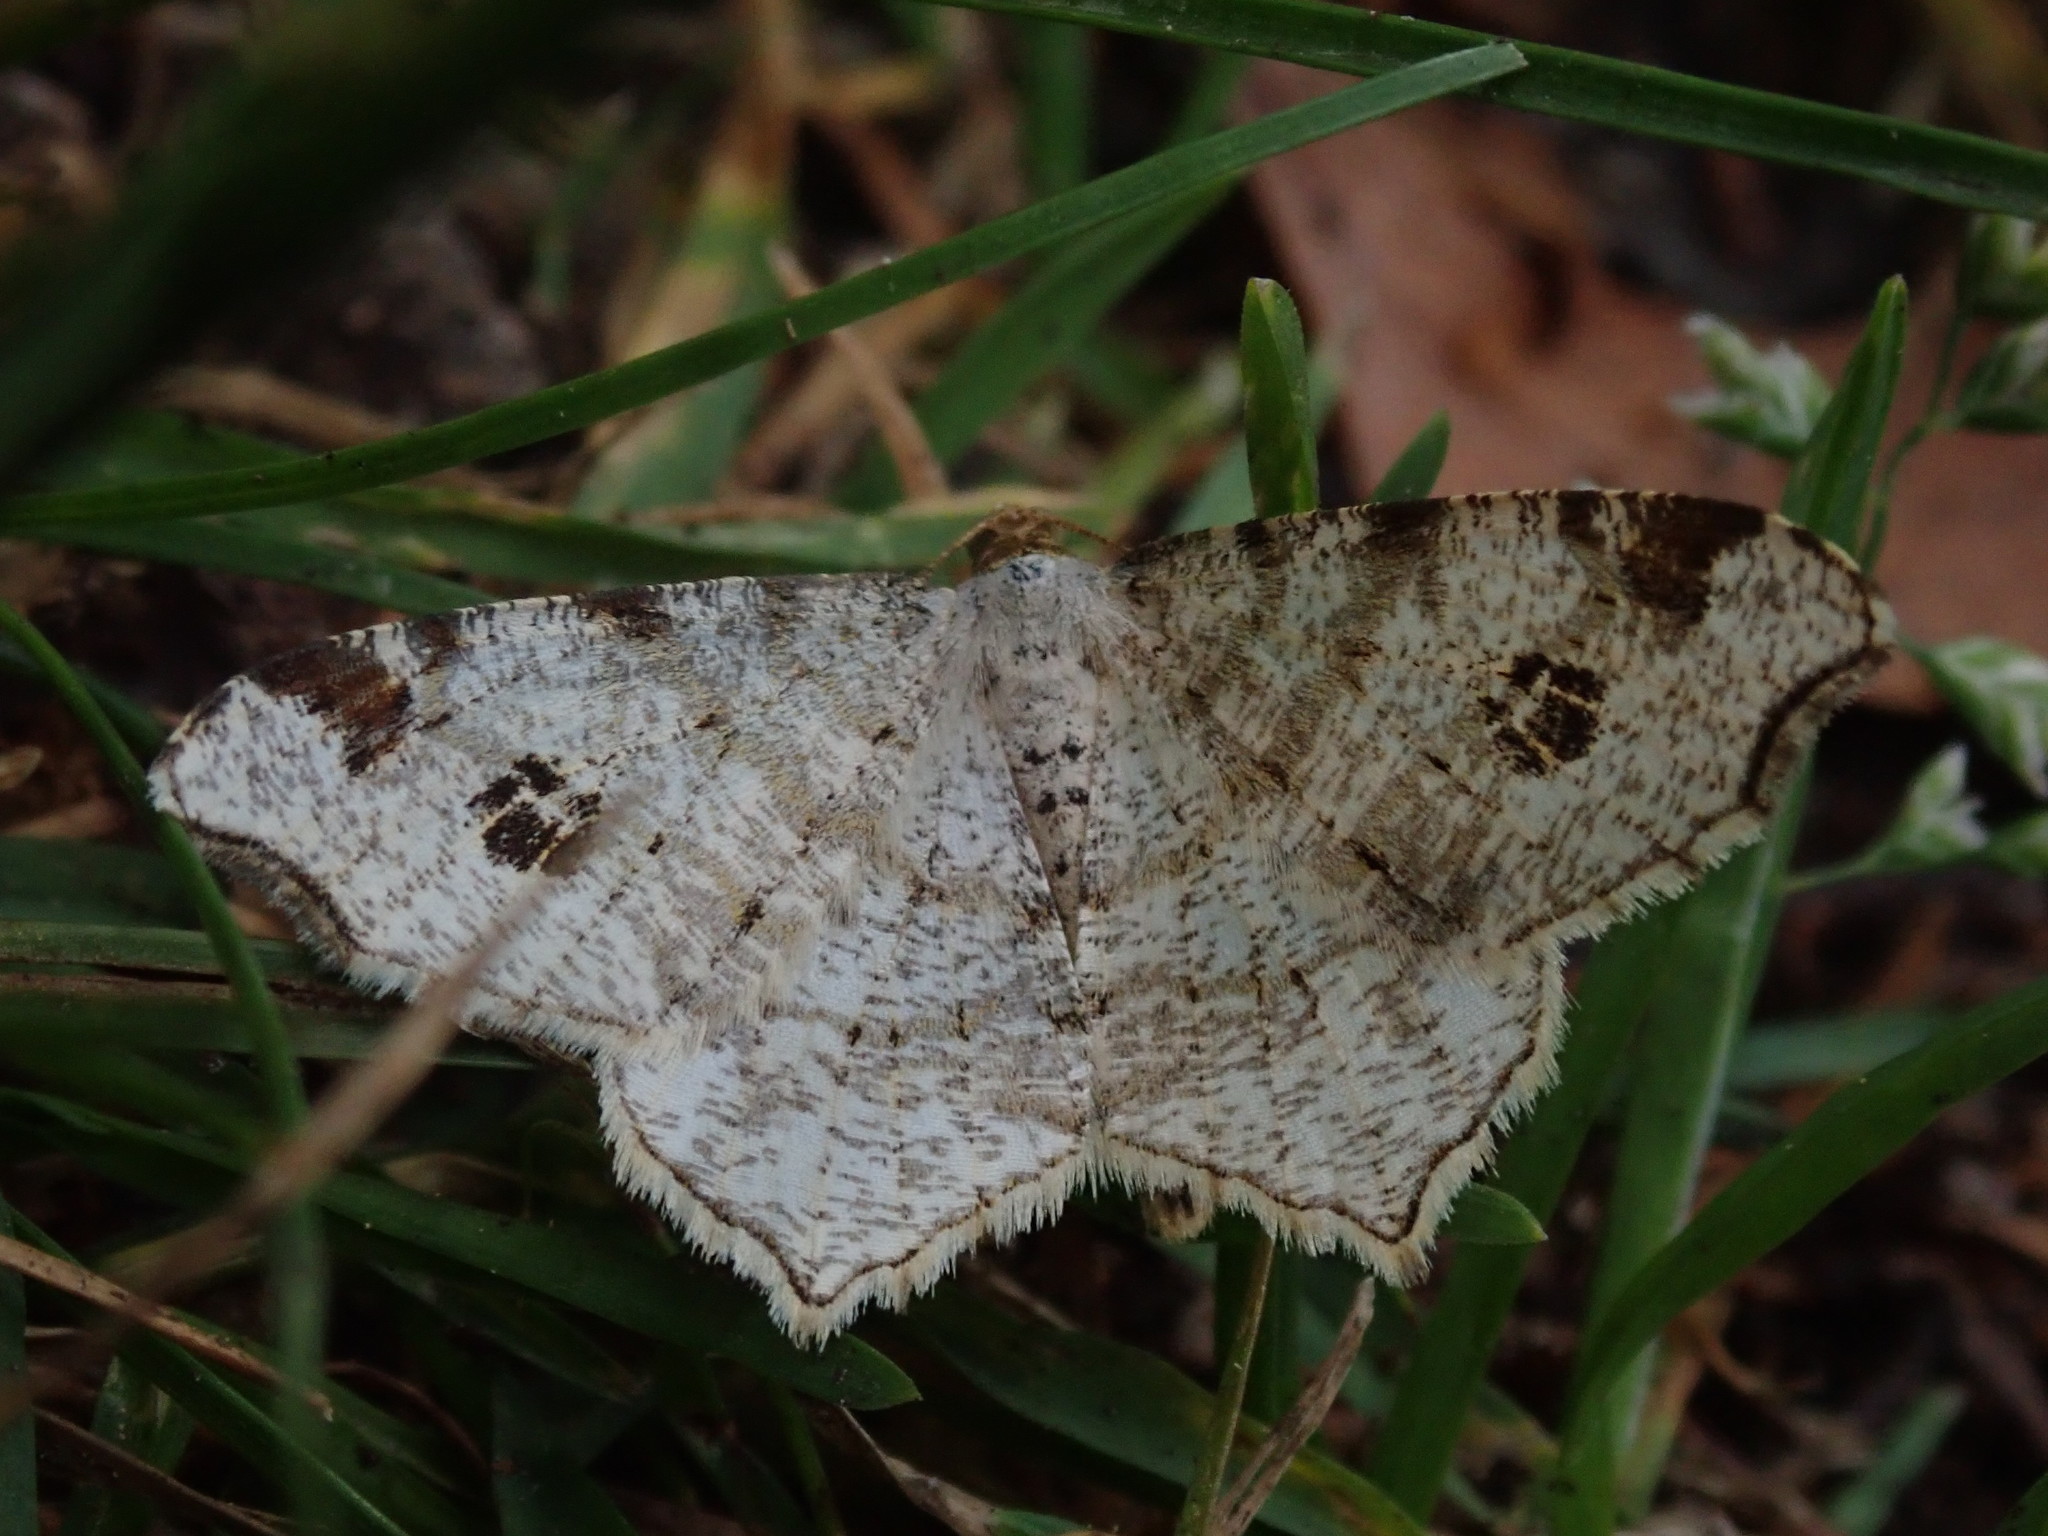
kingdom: Animalia
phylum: Arthropoda
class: Insecta
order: Lepidoptera
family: Geometridae
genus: Macaria
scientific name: Macaria notata
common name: Peacock moth
